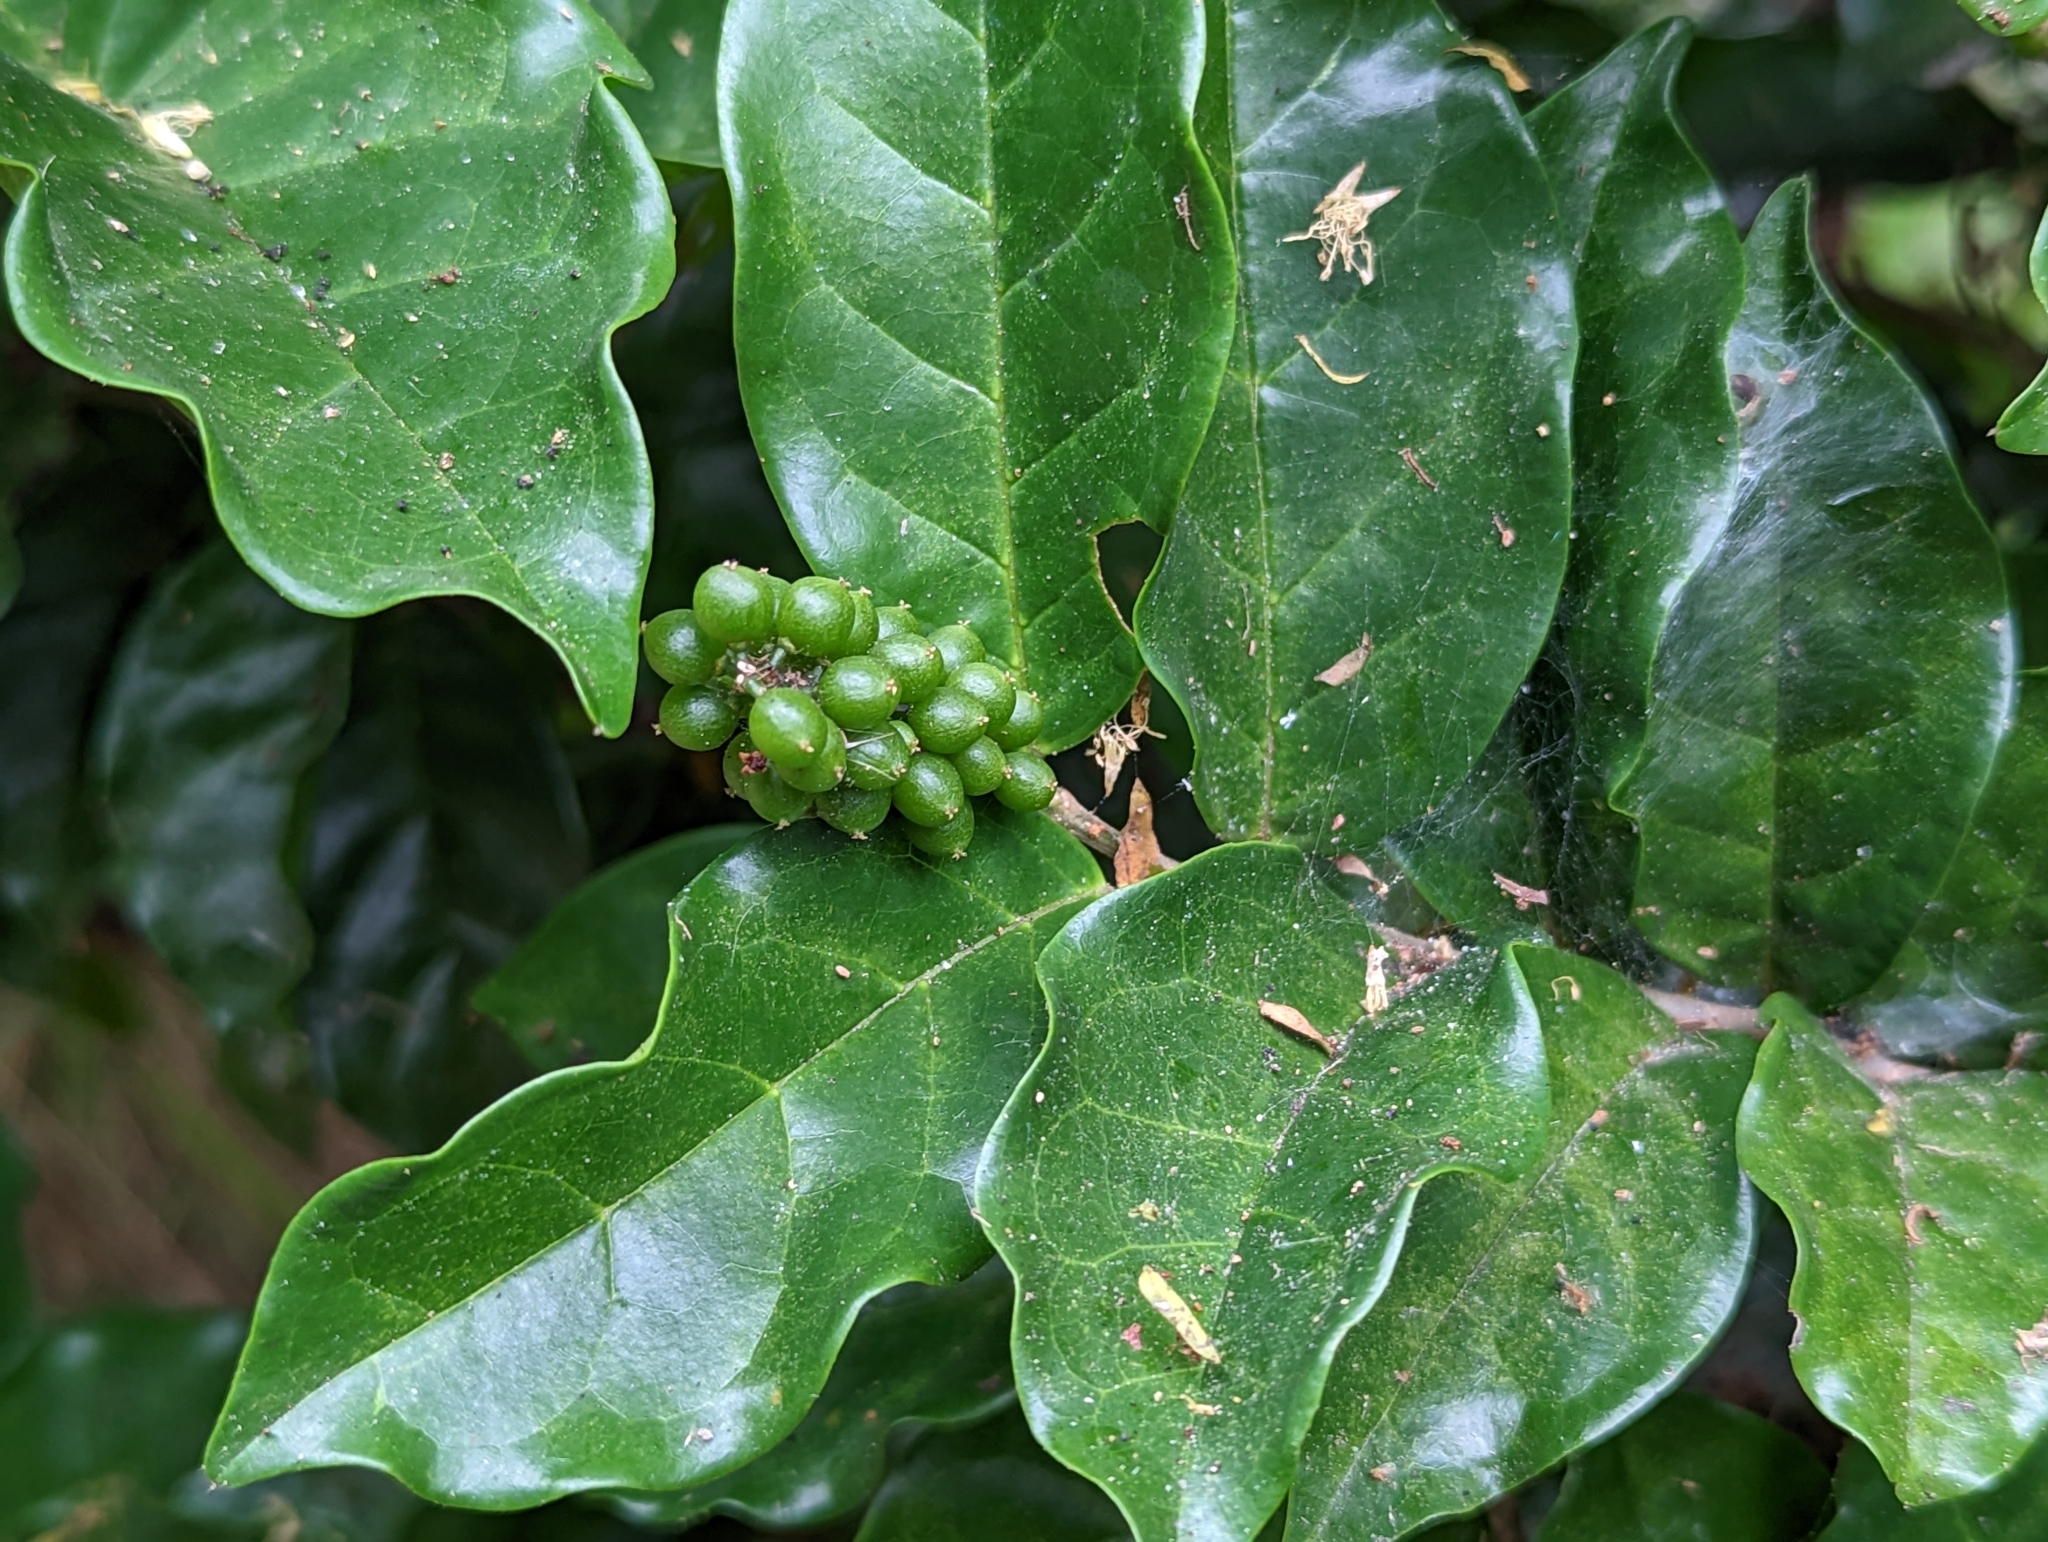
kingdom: Plantae
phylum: Tracheophyta
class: Magnoliopsida
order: Malpighiales
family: Phyllanthaceae
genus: Antidesma
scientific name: Antidesma montanum
